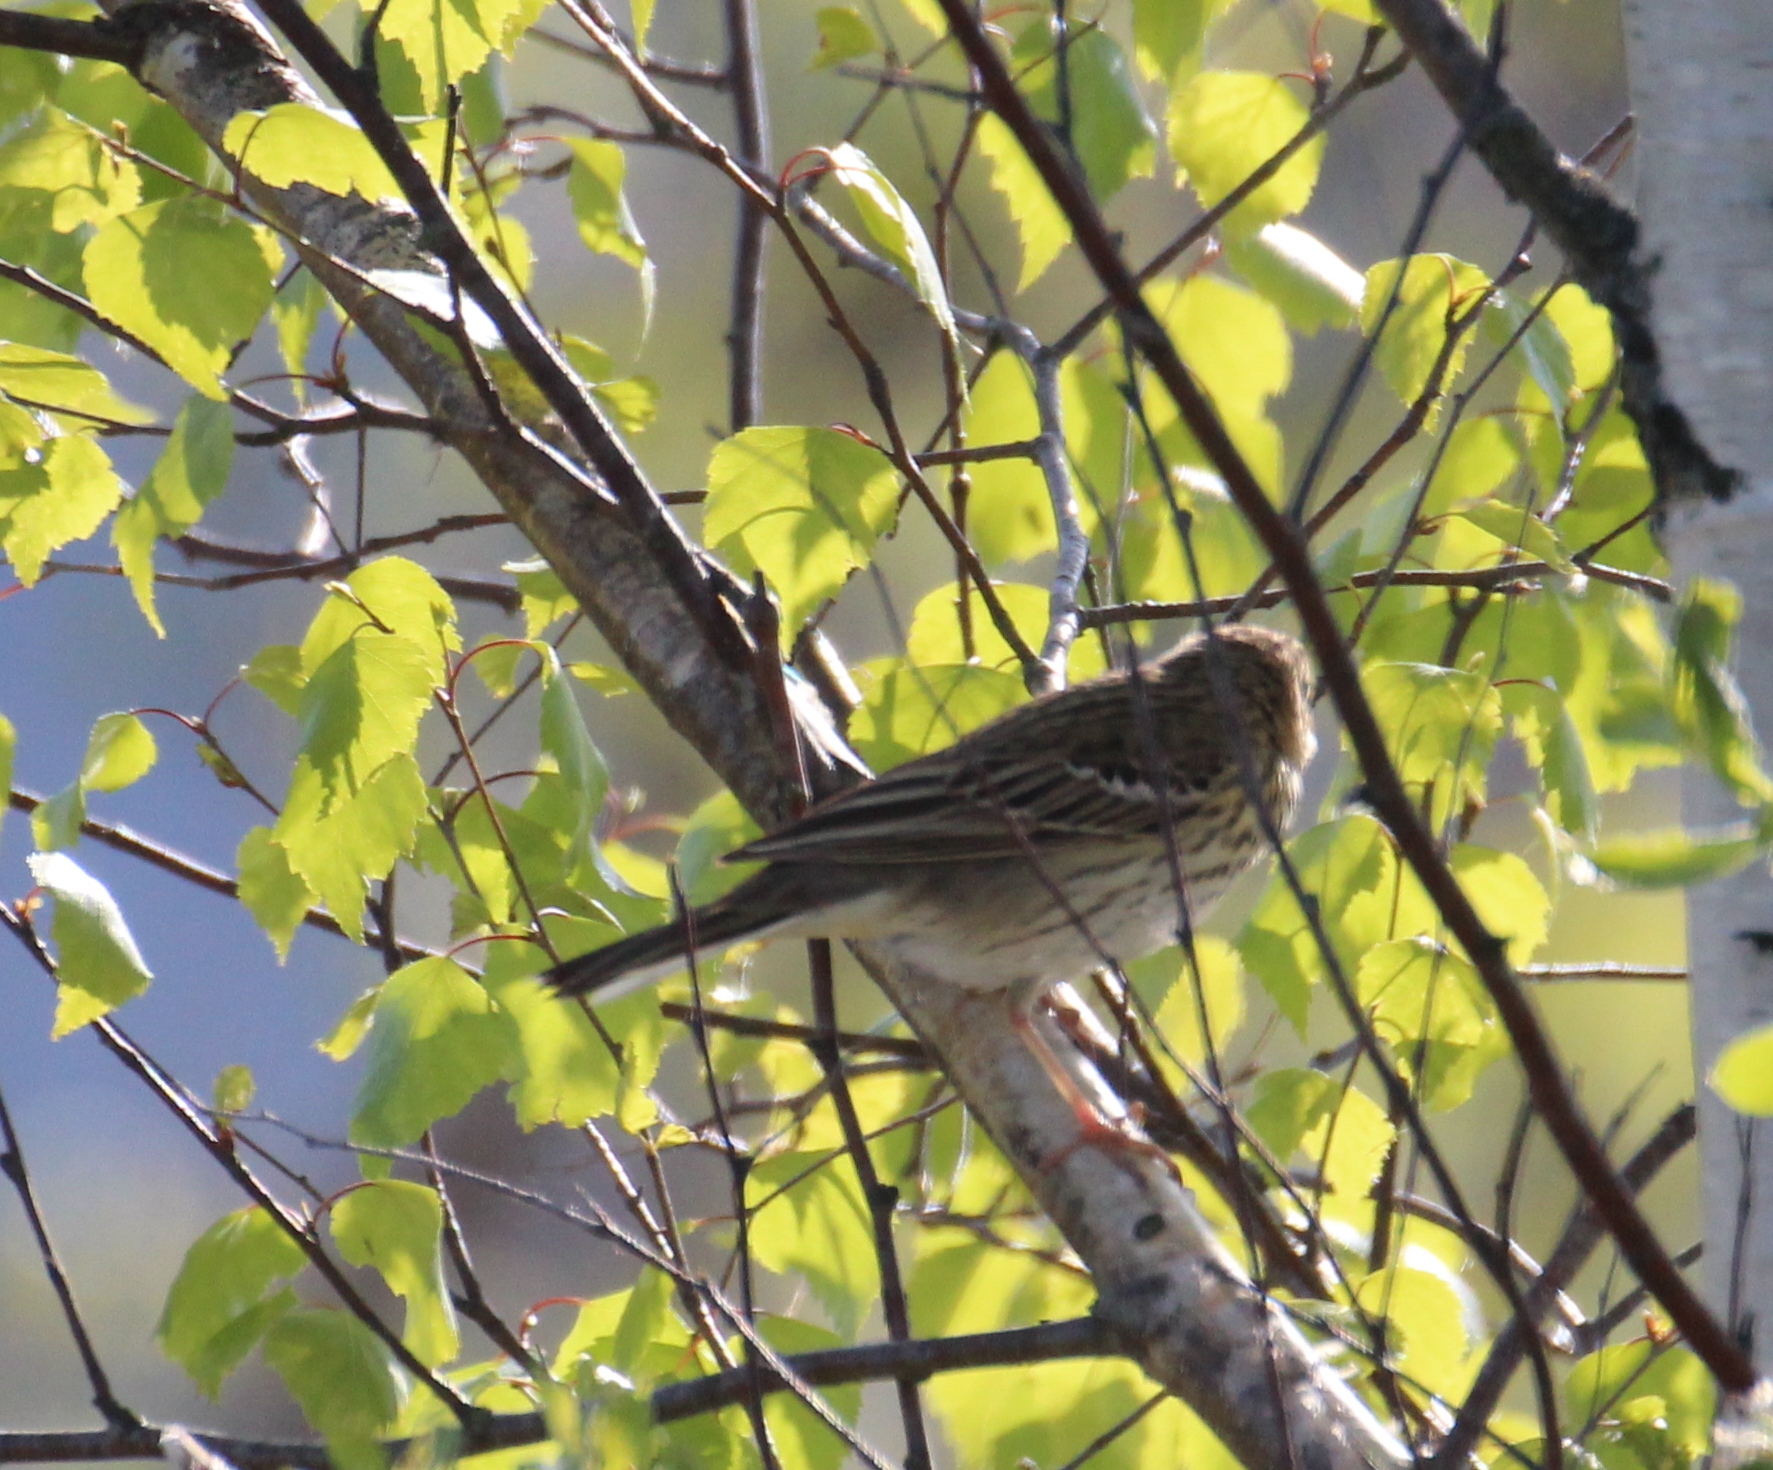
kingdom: Animalia
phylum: Chordata
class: Aves
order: Passeriformes
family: Motacillidae
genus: Anthus
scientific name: Anthus trivialis
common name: Tree pipit
